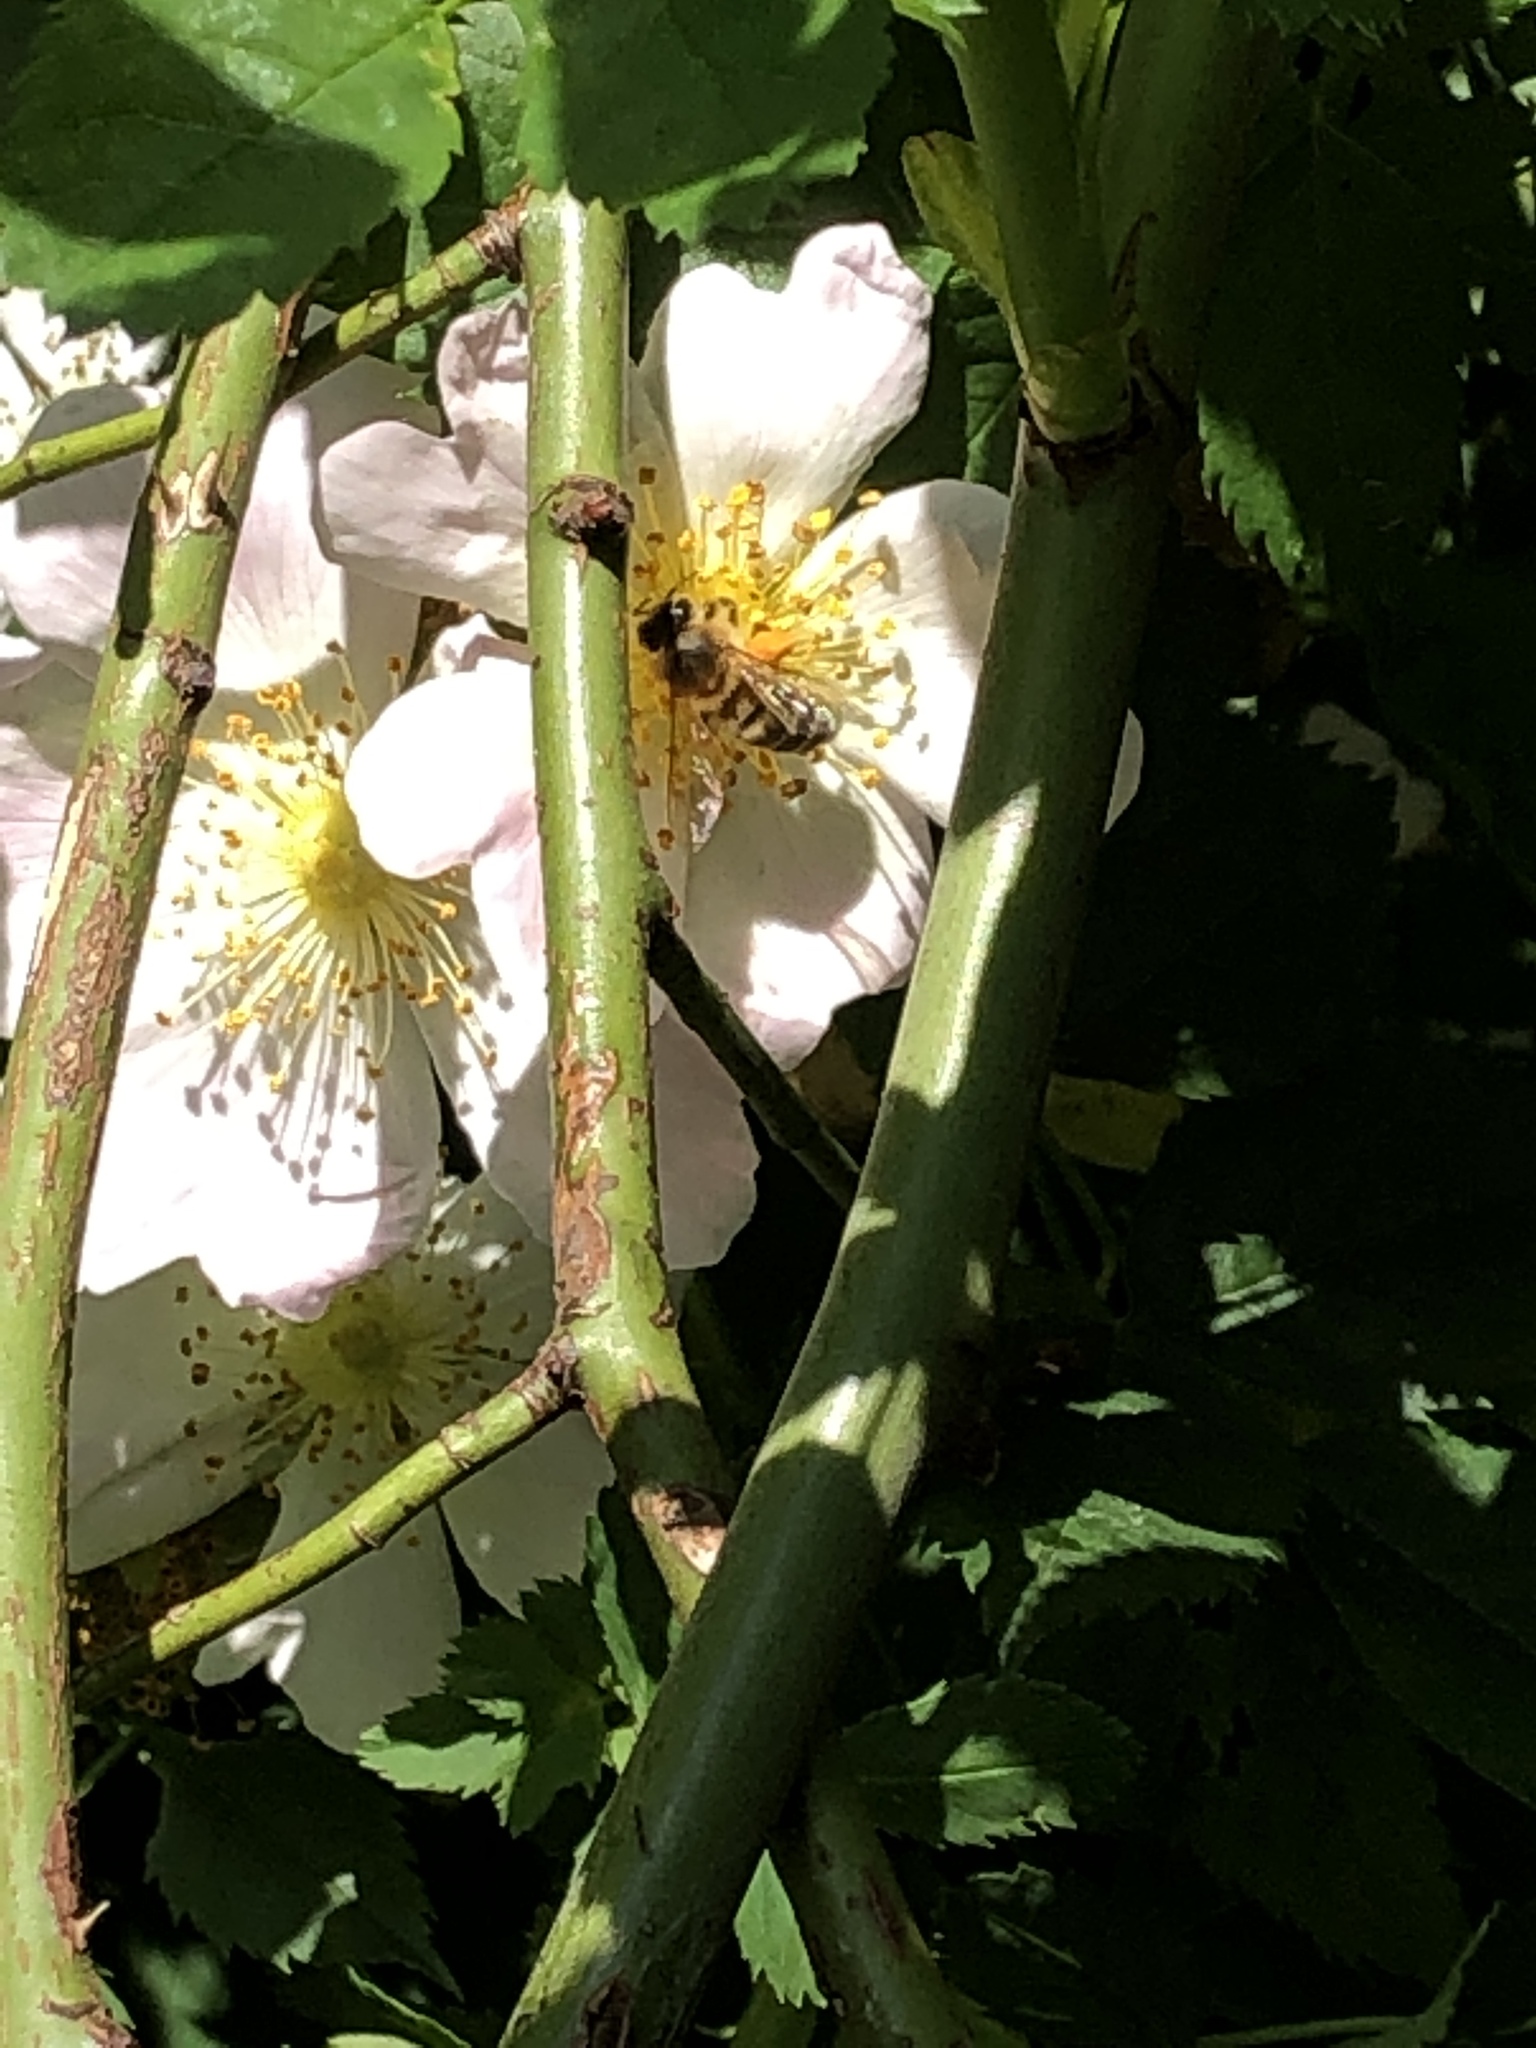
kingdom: Animalia
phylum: Arthropoda
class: Insecta
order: Hymenoptera
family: Apidae
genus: Apis
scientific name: Apis mellifera
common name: Honey bee
